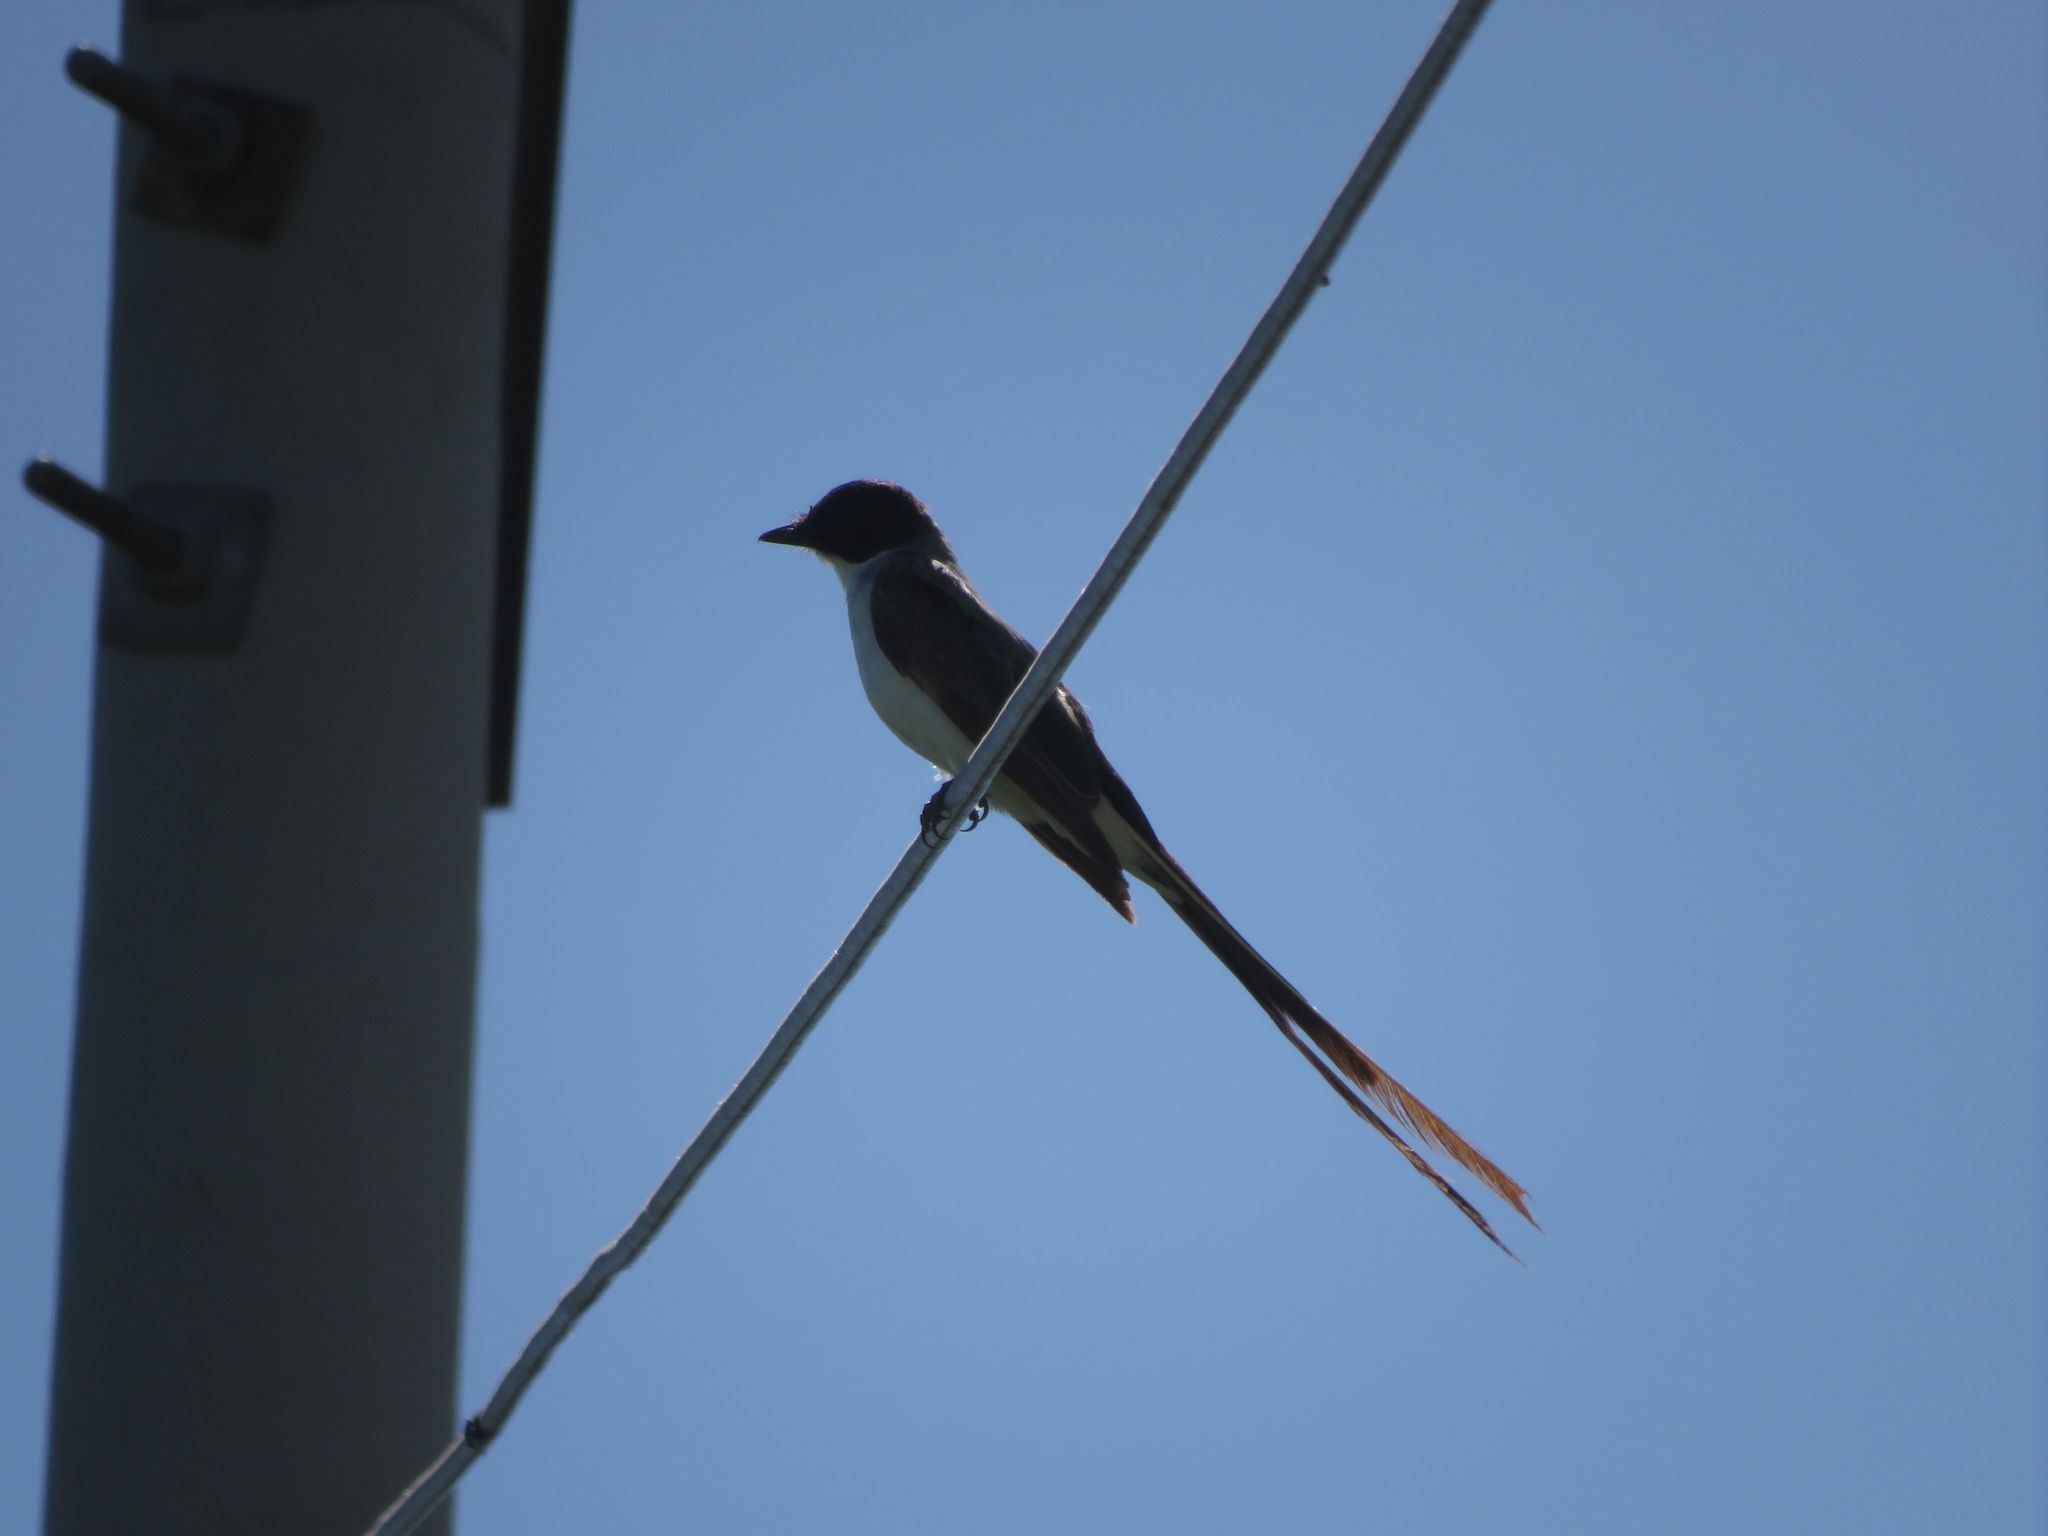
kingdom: Animalia
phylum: Chordata
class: Aves
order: Passeriformes
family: Tyrannidae
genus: Tyrannus
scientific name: Tyrannus savana
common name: Fork-tailed flycatcher
